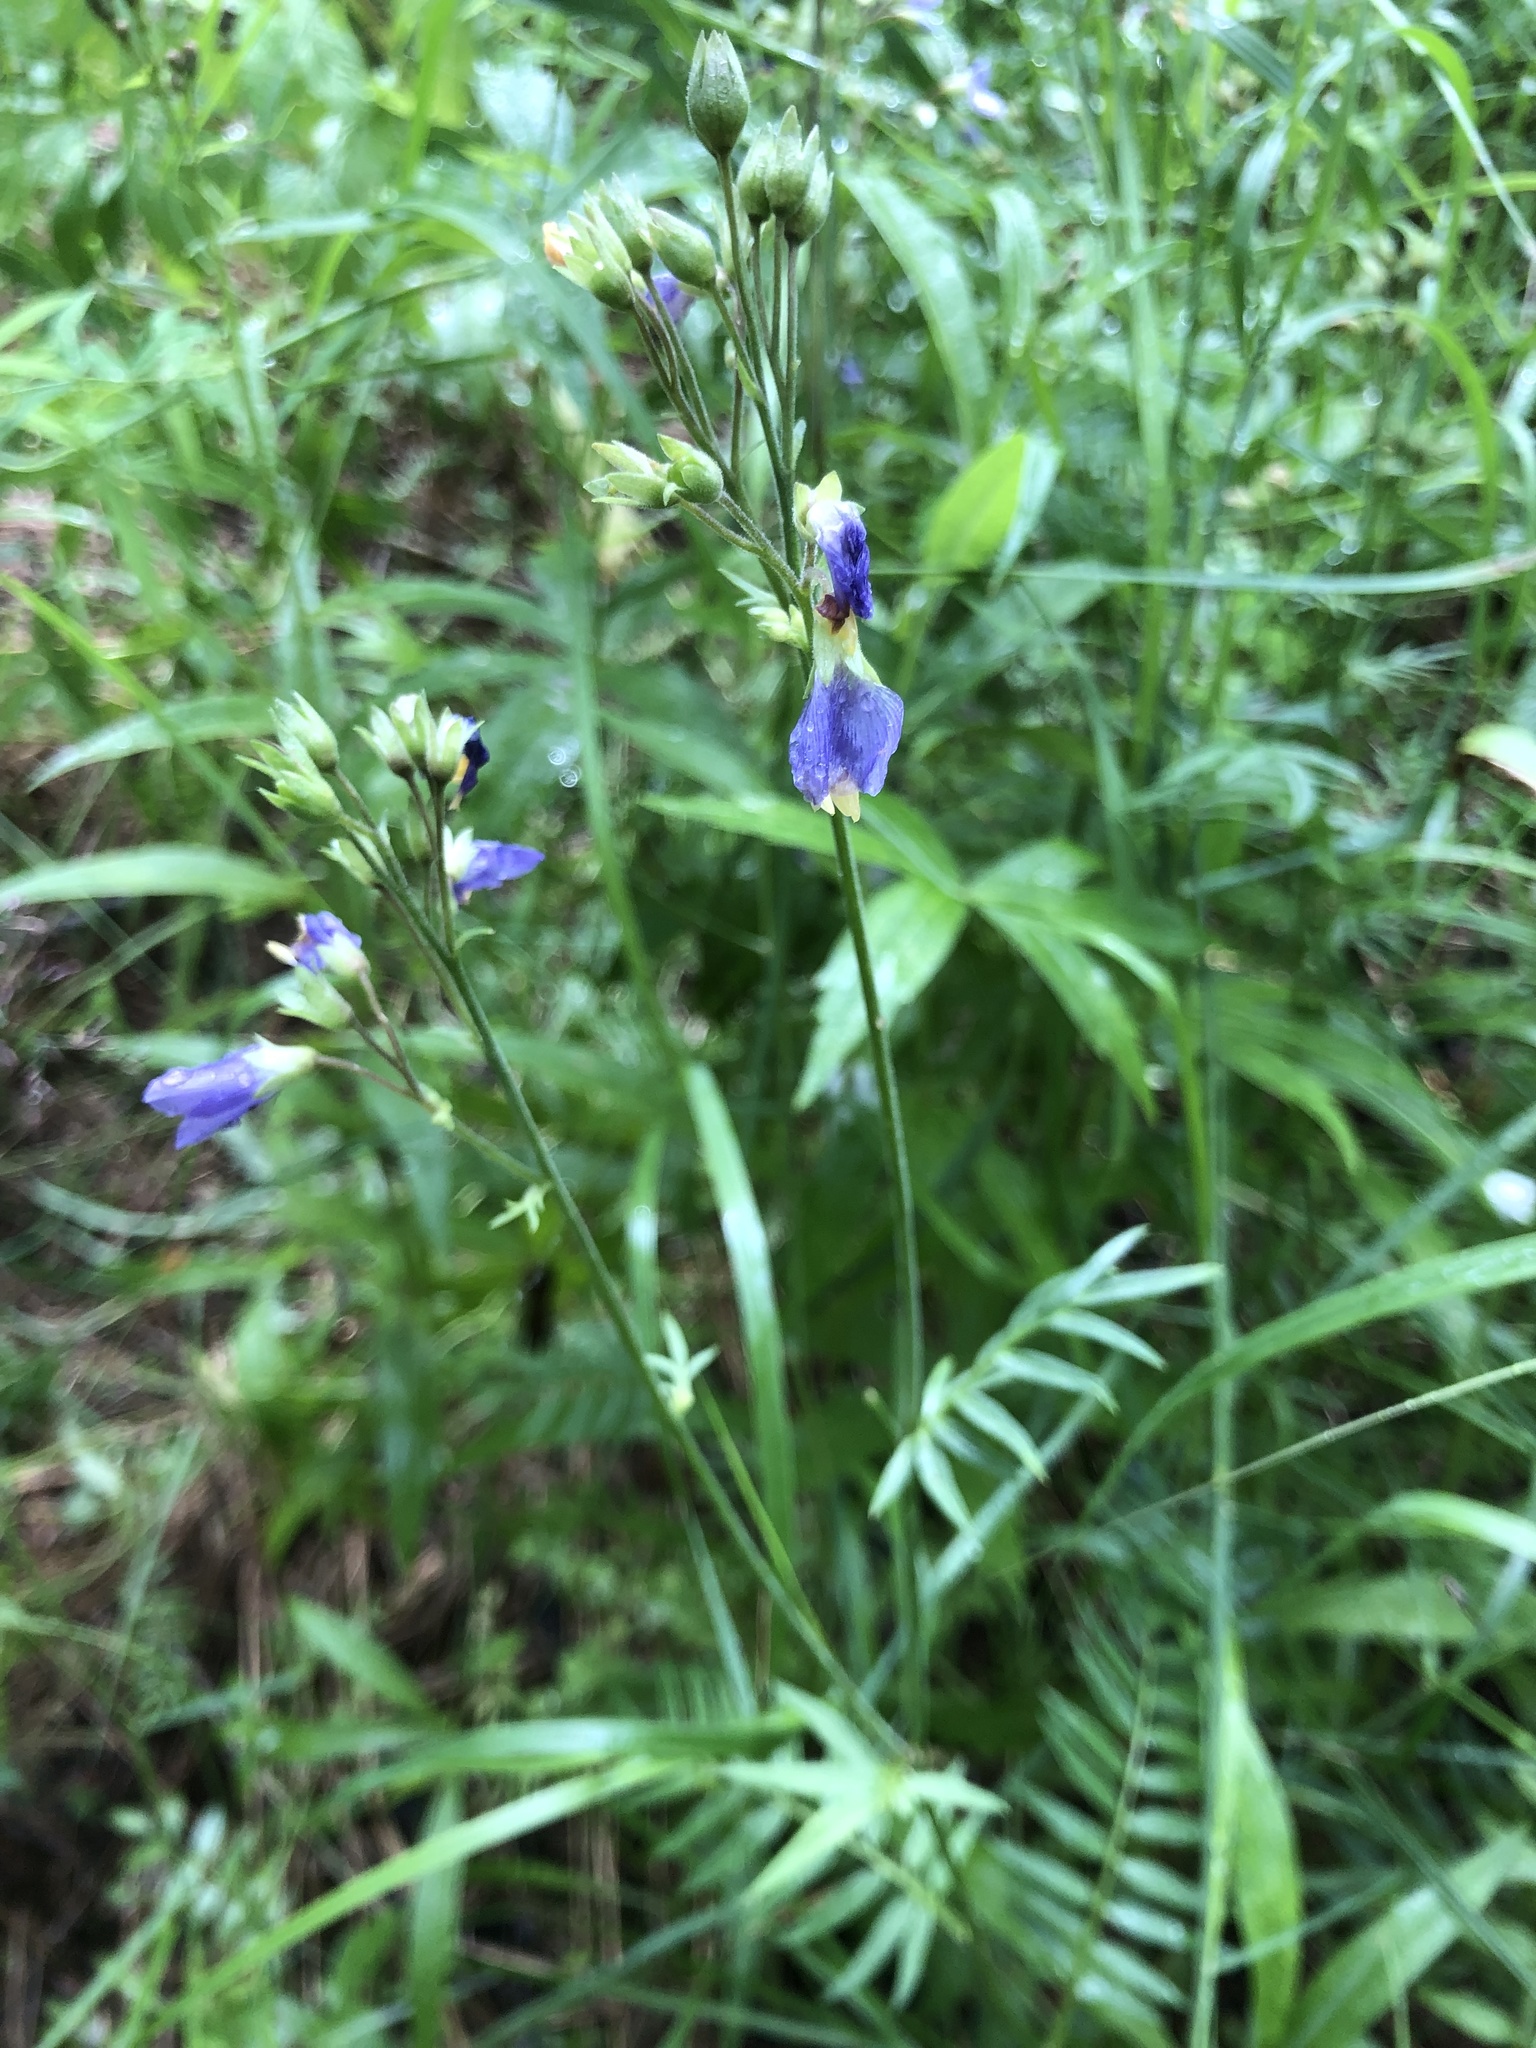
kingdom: Plantae
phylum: Tracheophyta
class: Magnoliopsida
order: Ericales
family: Polemoniaceae
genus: Polemonium
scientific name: Polemonium caeruleum
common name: Jacob's-ladder
